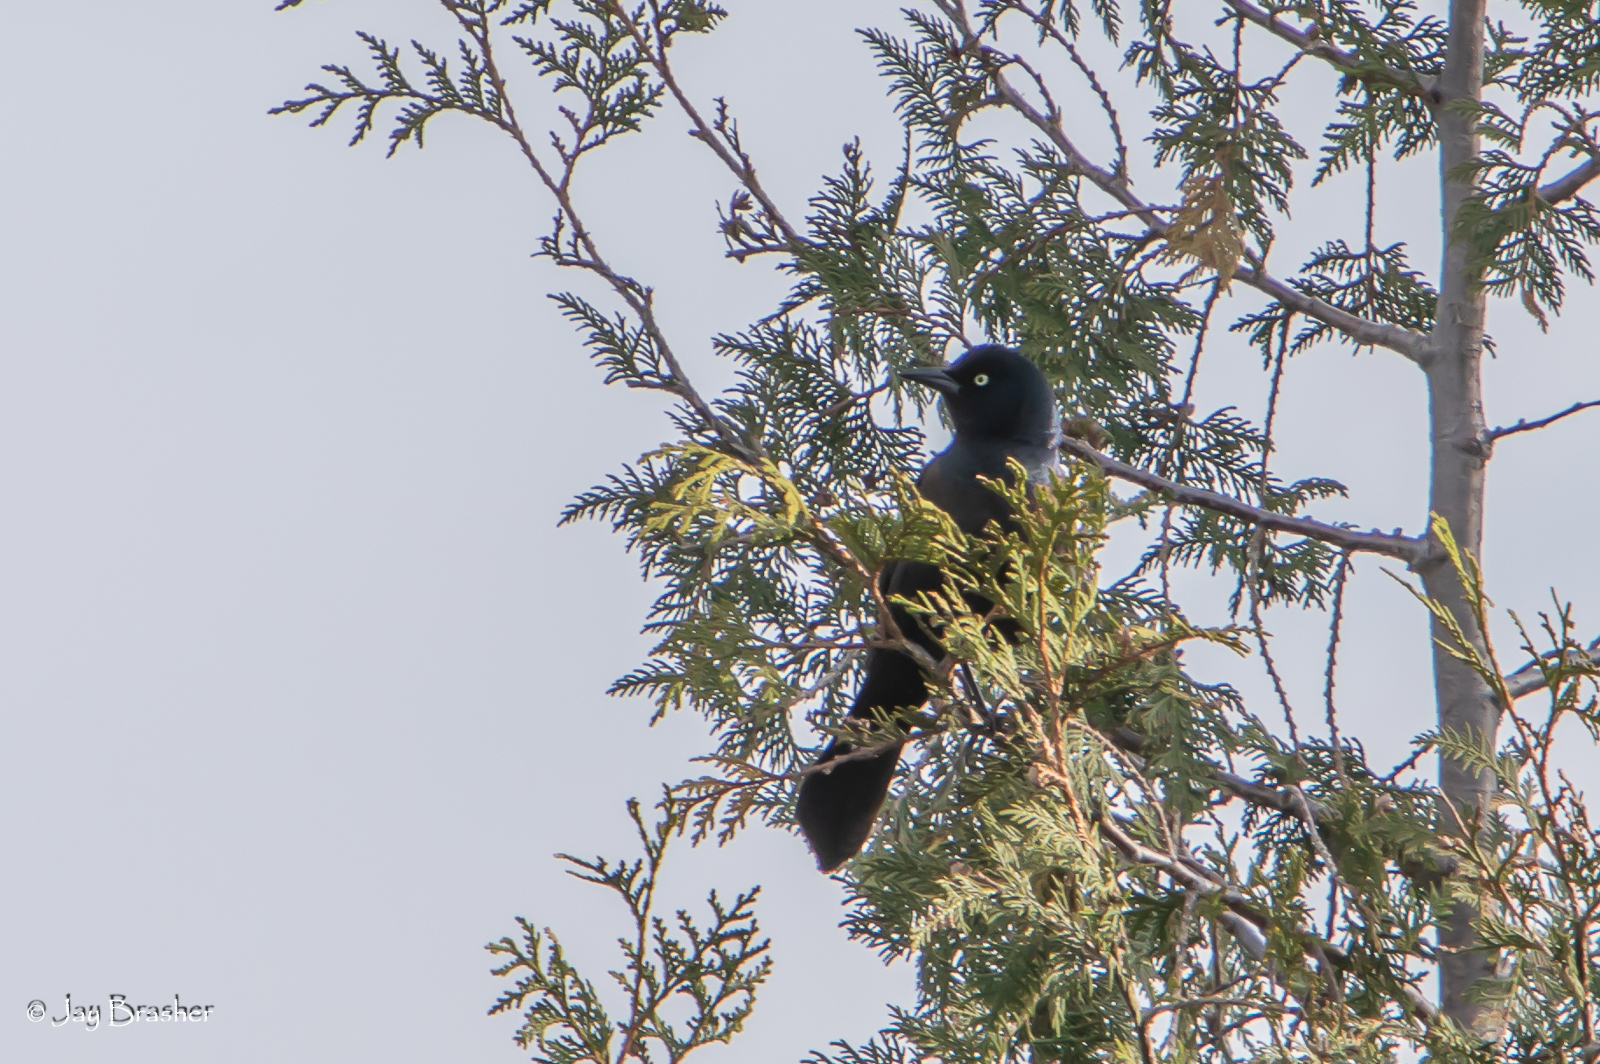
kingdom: Animalia
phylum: Chordata
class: Aves
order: Passeriformes
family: Icteridae
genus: Quiscalus
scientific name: Quiscalus quiscula
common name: Common grackle
